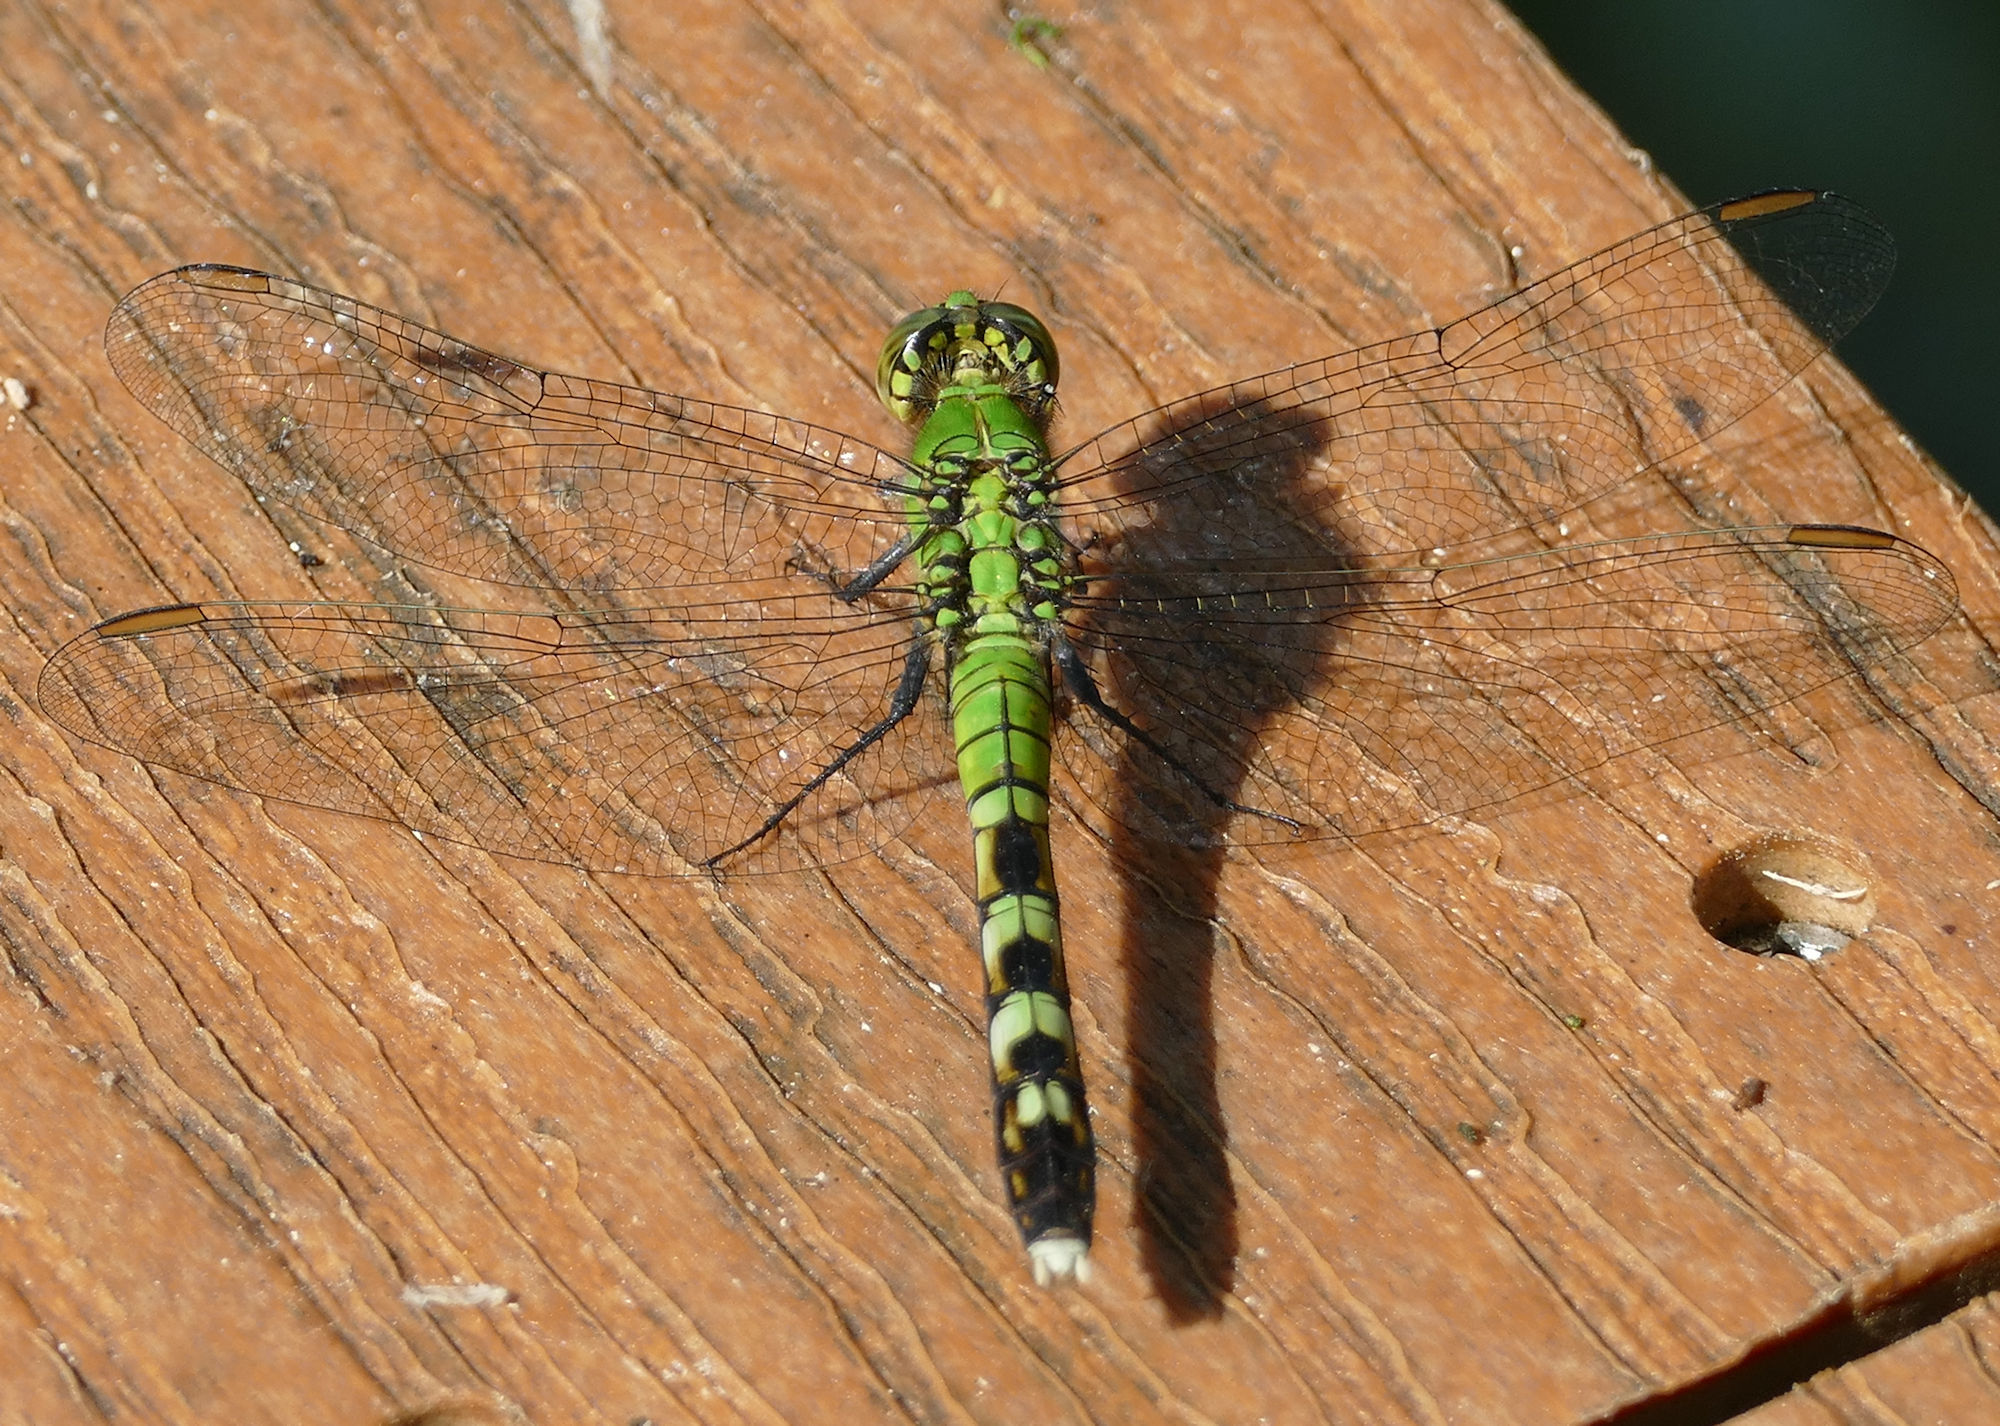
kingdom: Animalia
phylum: Arthropoda
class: Insecta
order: Odonata
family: Libellulidae
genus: Erythemis
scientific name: Erythemis simplicicollis
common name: Eastern pondhawk
